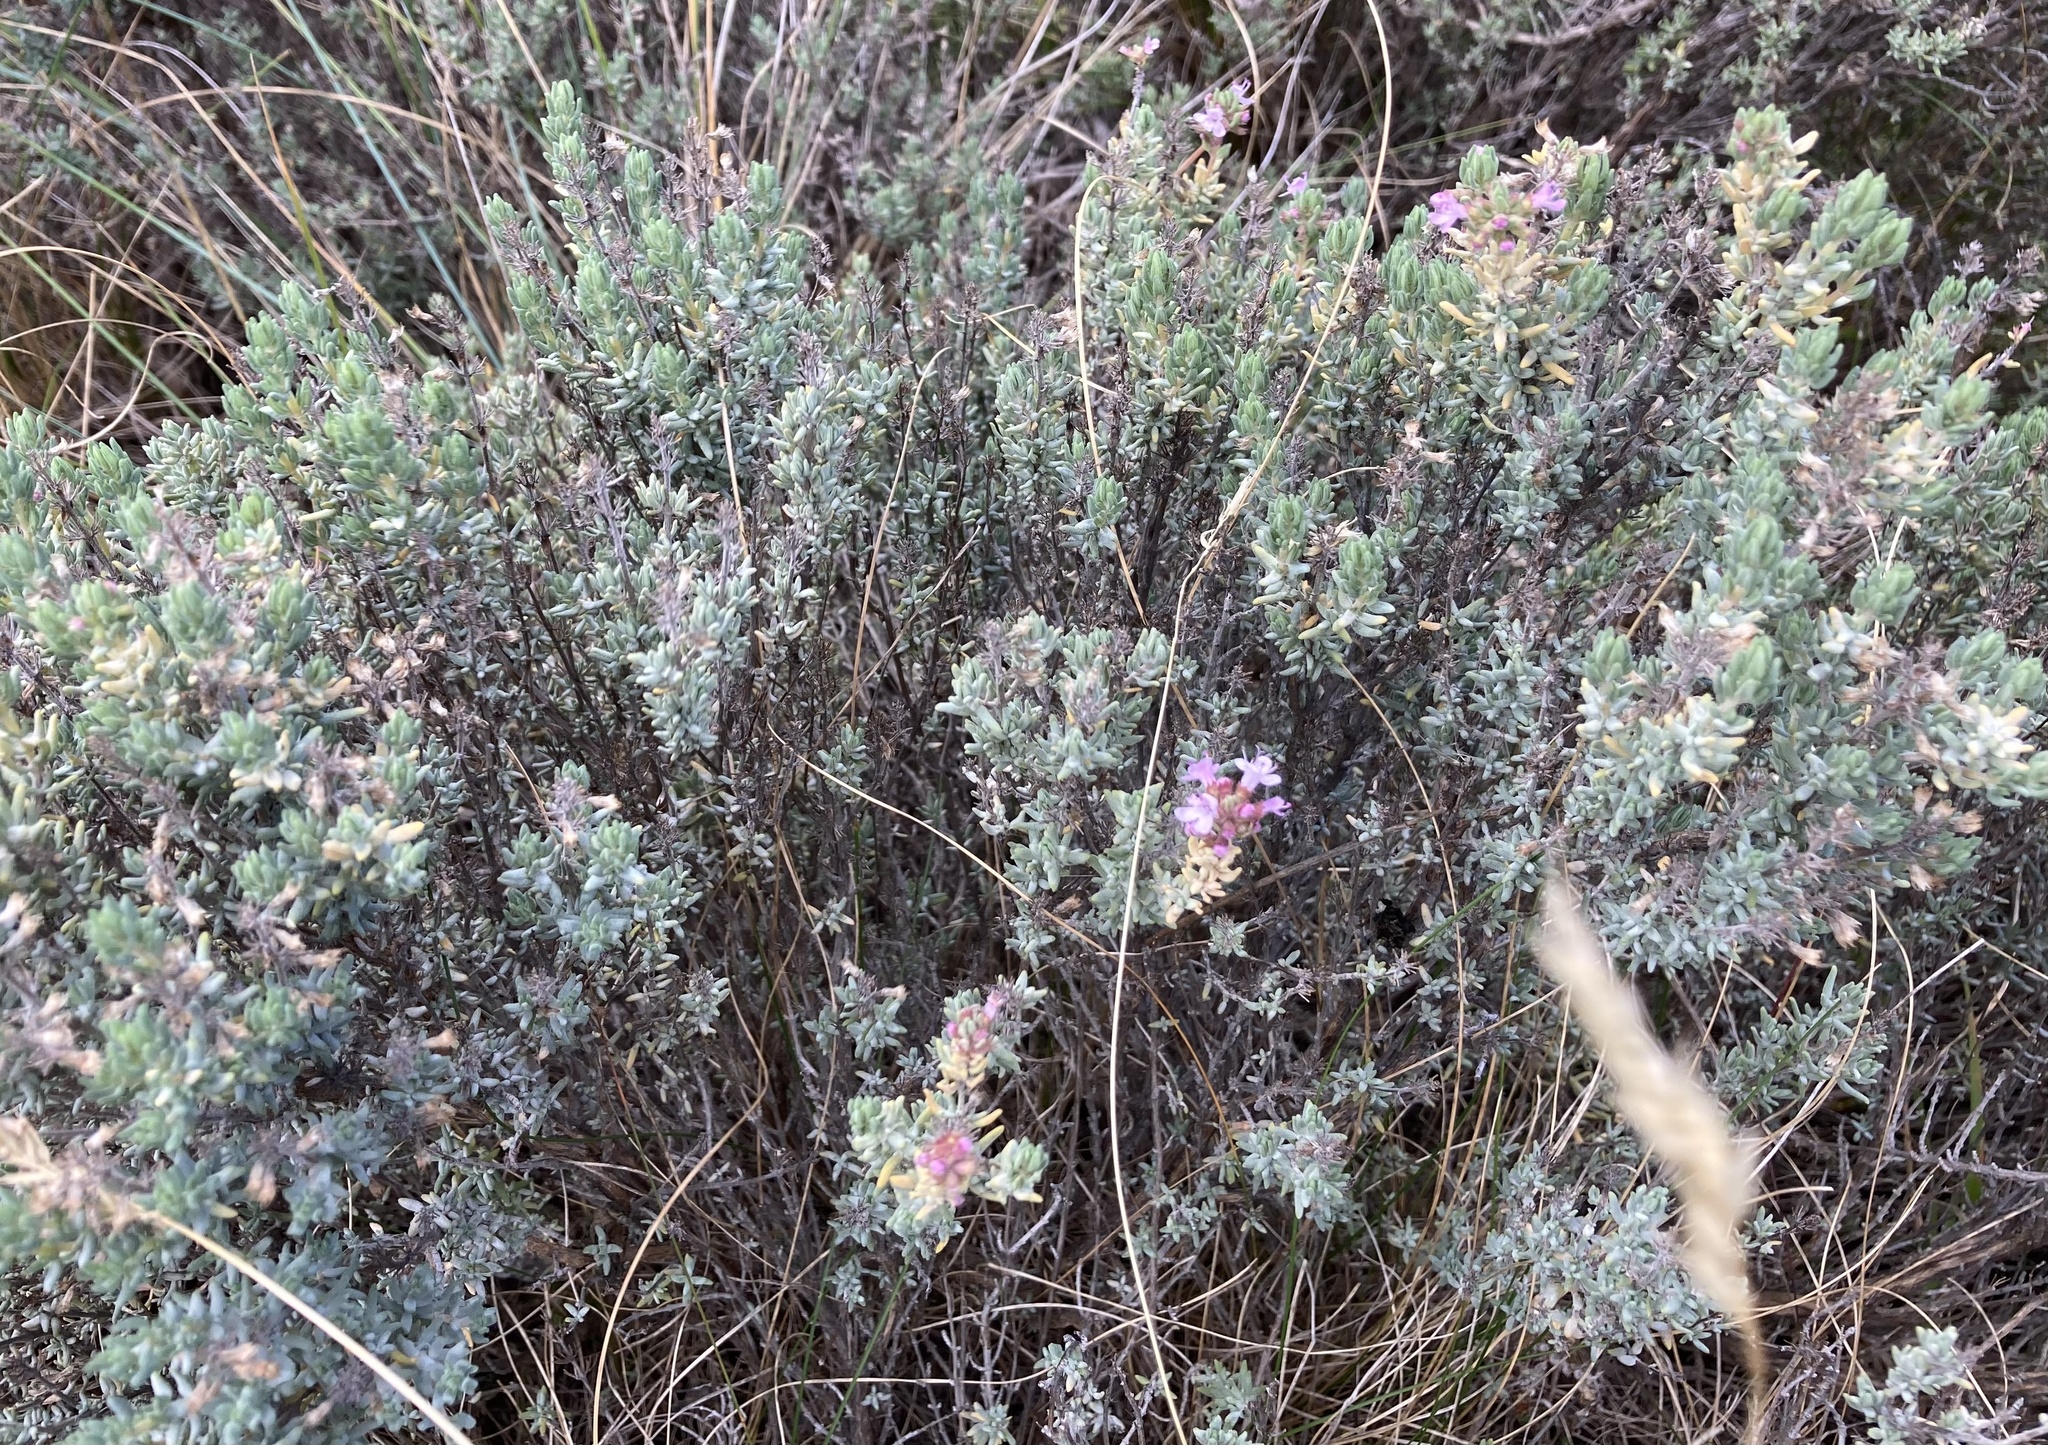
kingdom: Plantae
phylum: Tracheophyta
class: Magnoliopsida
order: Lamiales
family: Lamiaceae
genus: Thymus
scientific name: Thymus vulgaris
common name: Garden thyme
